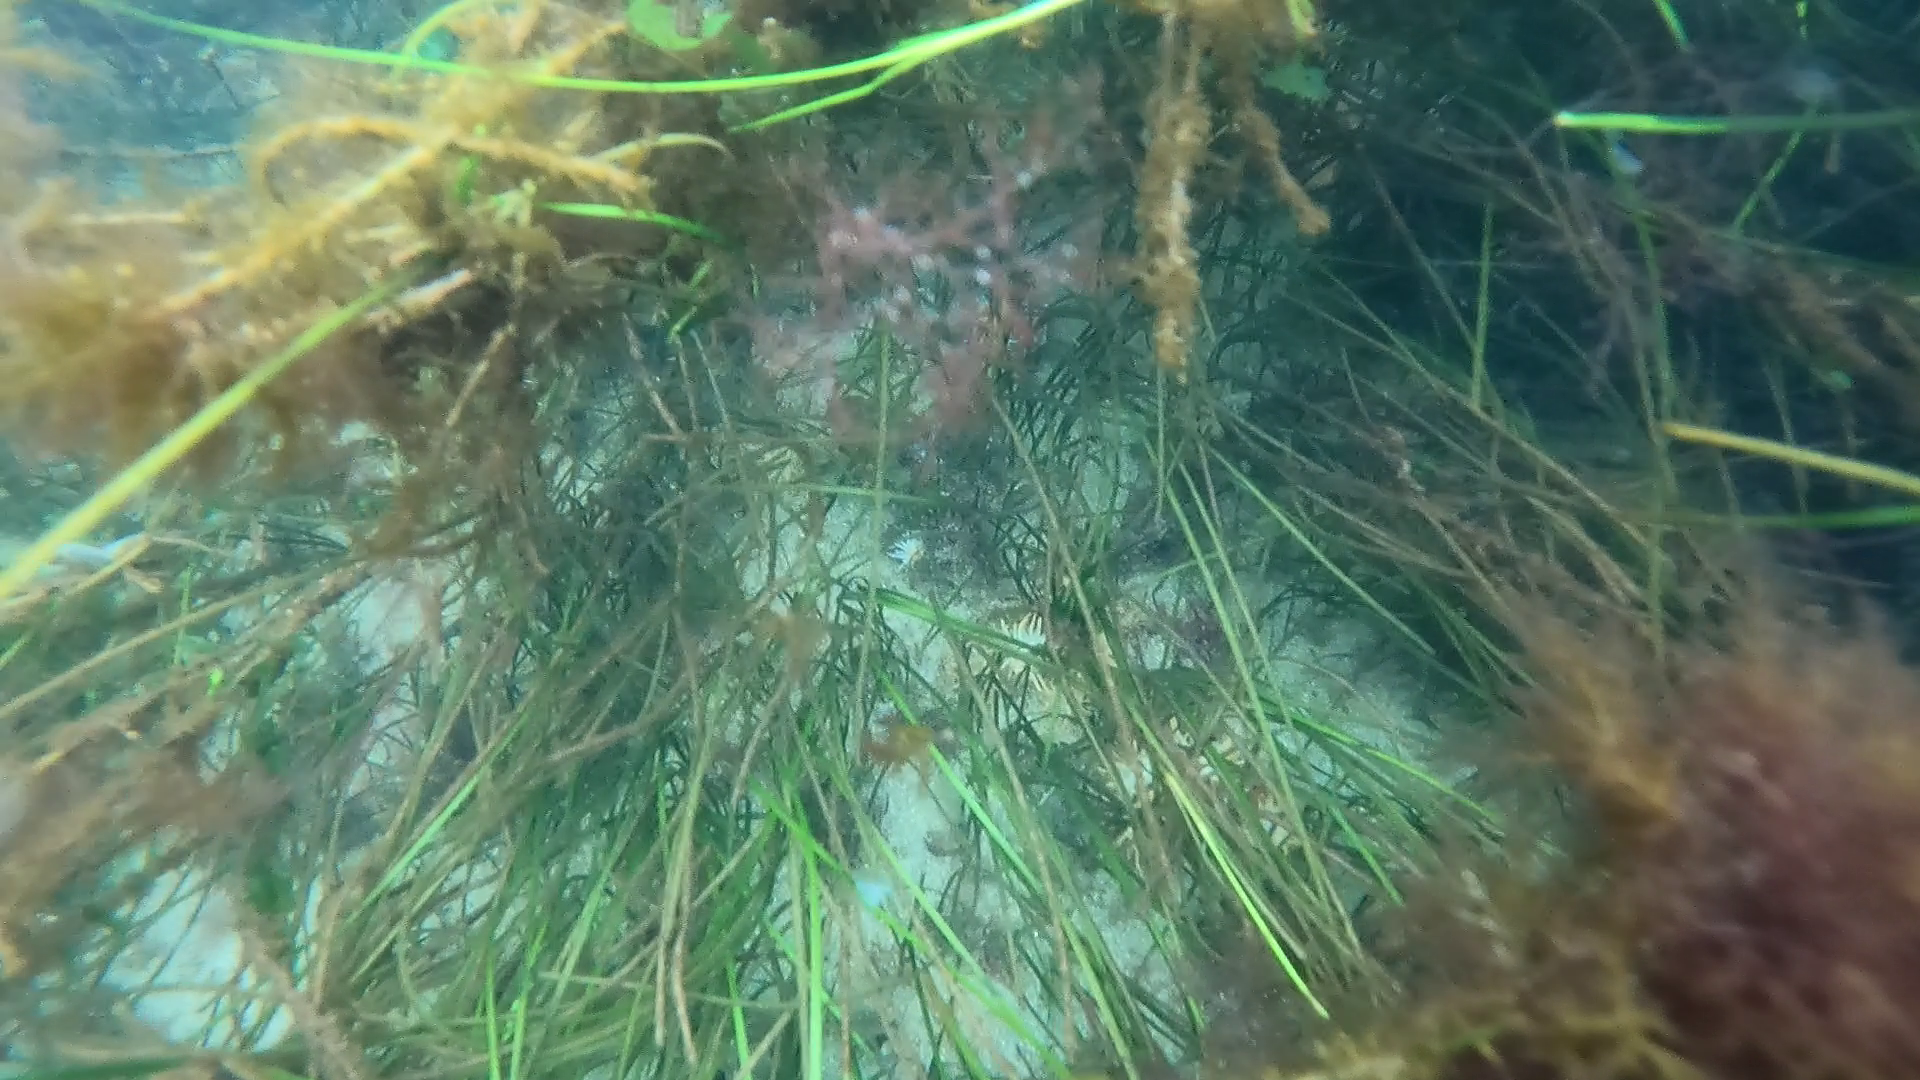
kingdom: Plantae
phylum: Tracheophyta
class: Liliopsida
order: Alismatales
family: Zosteraceae
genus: Zostera
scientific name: Zostera nigricaulis
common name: Species code: zg
